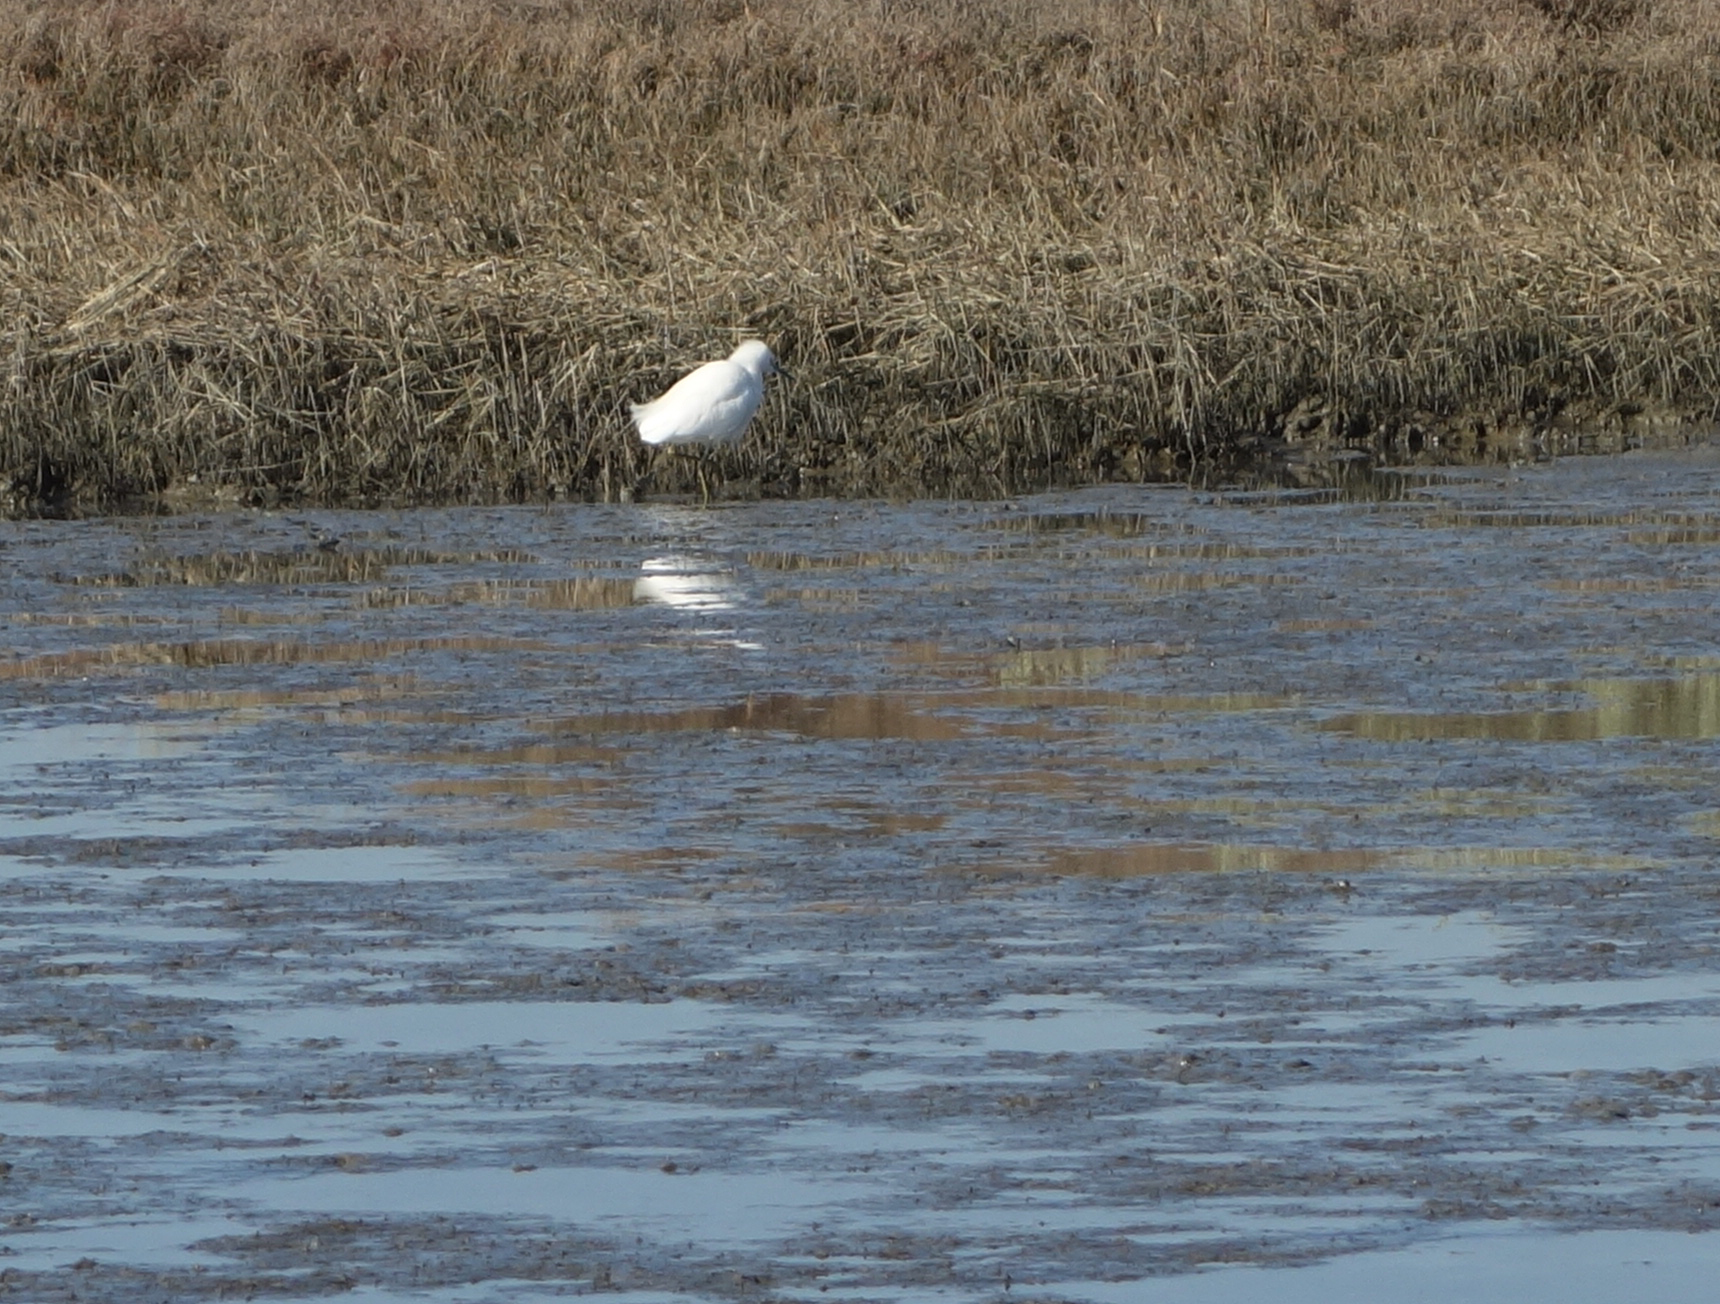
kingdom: Animalia
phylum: Chordata
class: Aves
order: Pelecaniformes
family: Ardeidae
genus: Egretta
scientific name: Egretta thula
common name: Snowy egret
